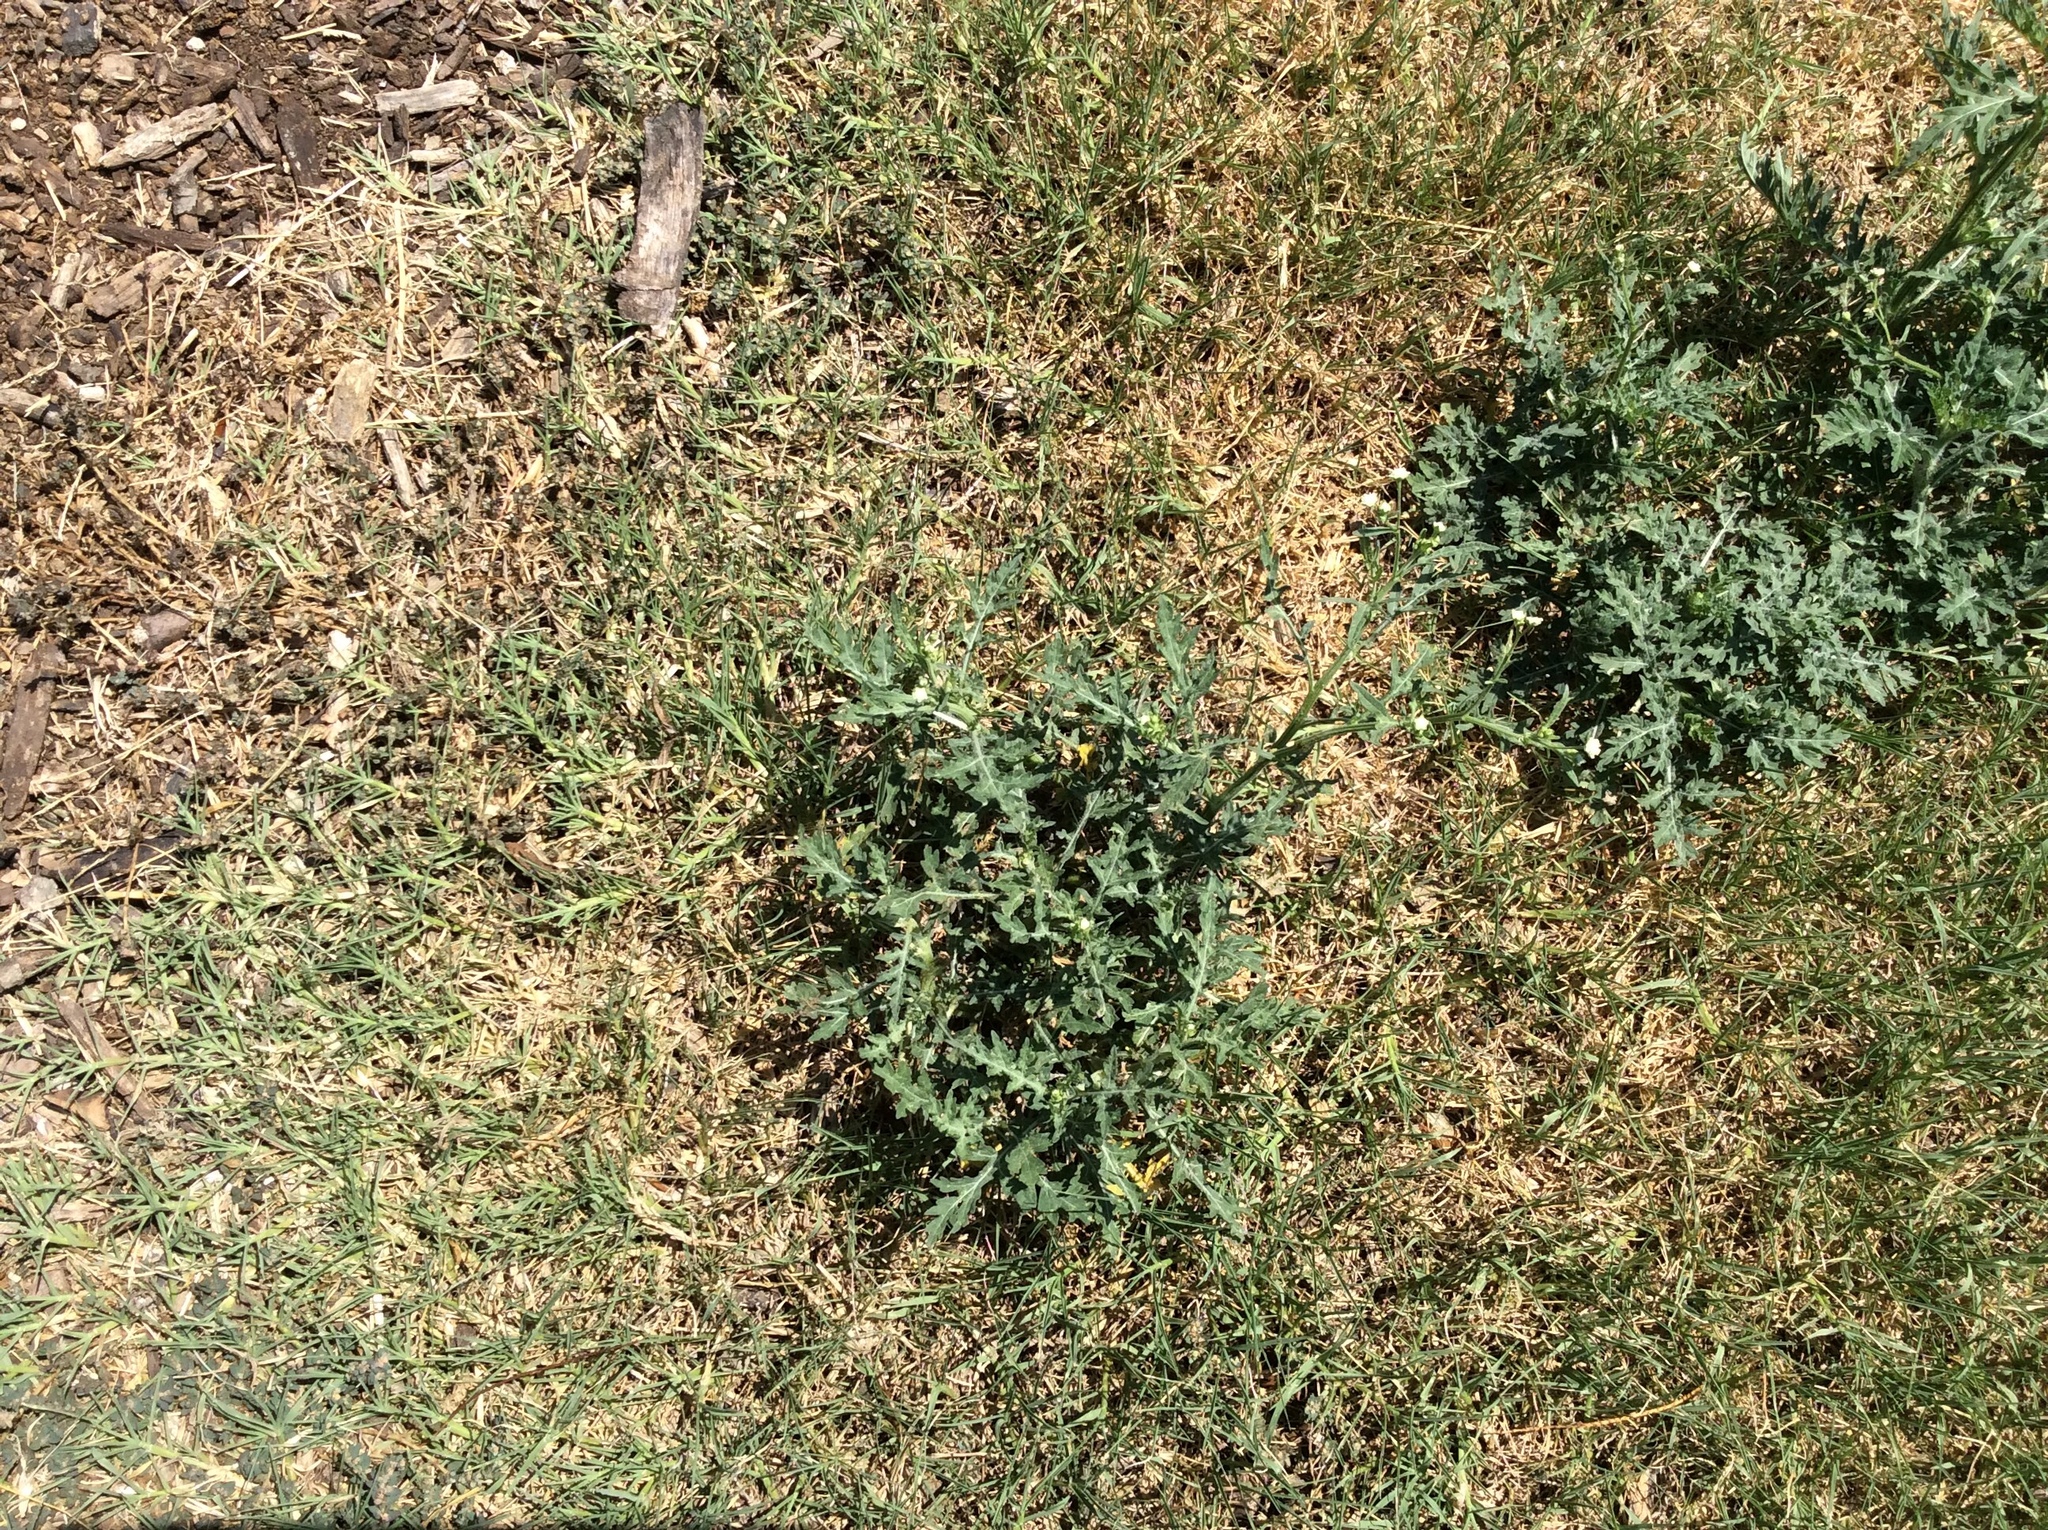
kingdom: Plantae
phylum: Tracheophyta
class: Magnoliopsida
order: Asterales
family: Asteraceae
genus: Parthenium
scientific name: Parthenium hysterophorus
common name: Santa maria feverfew
